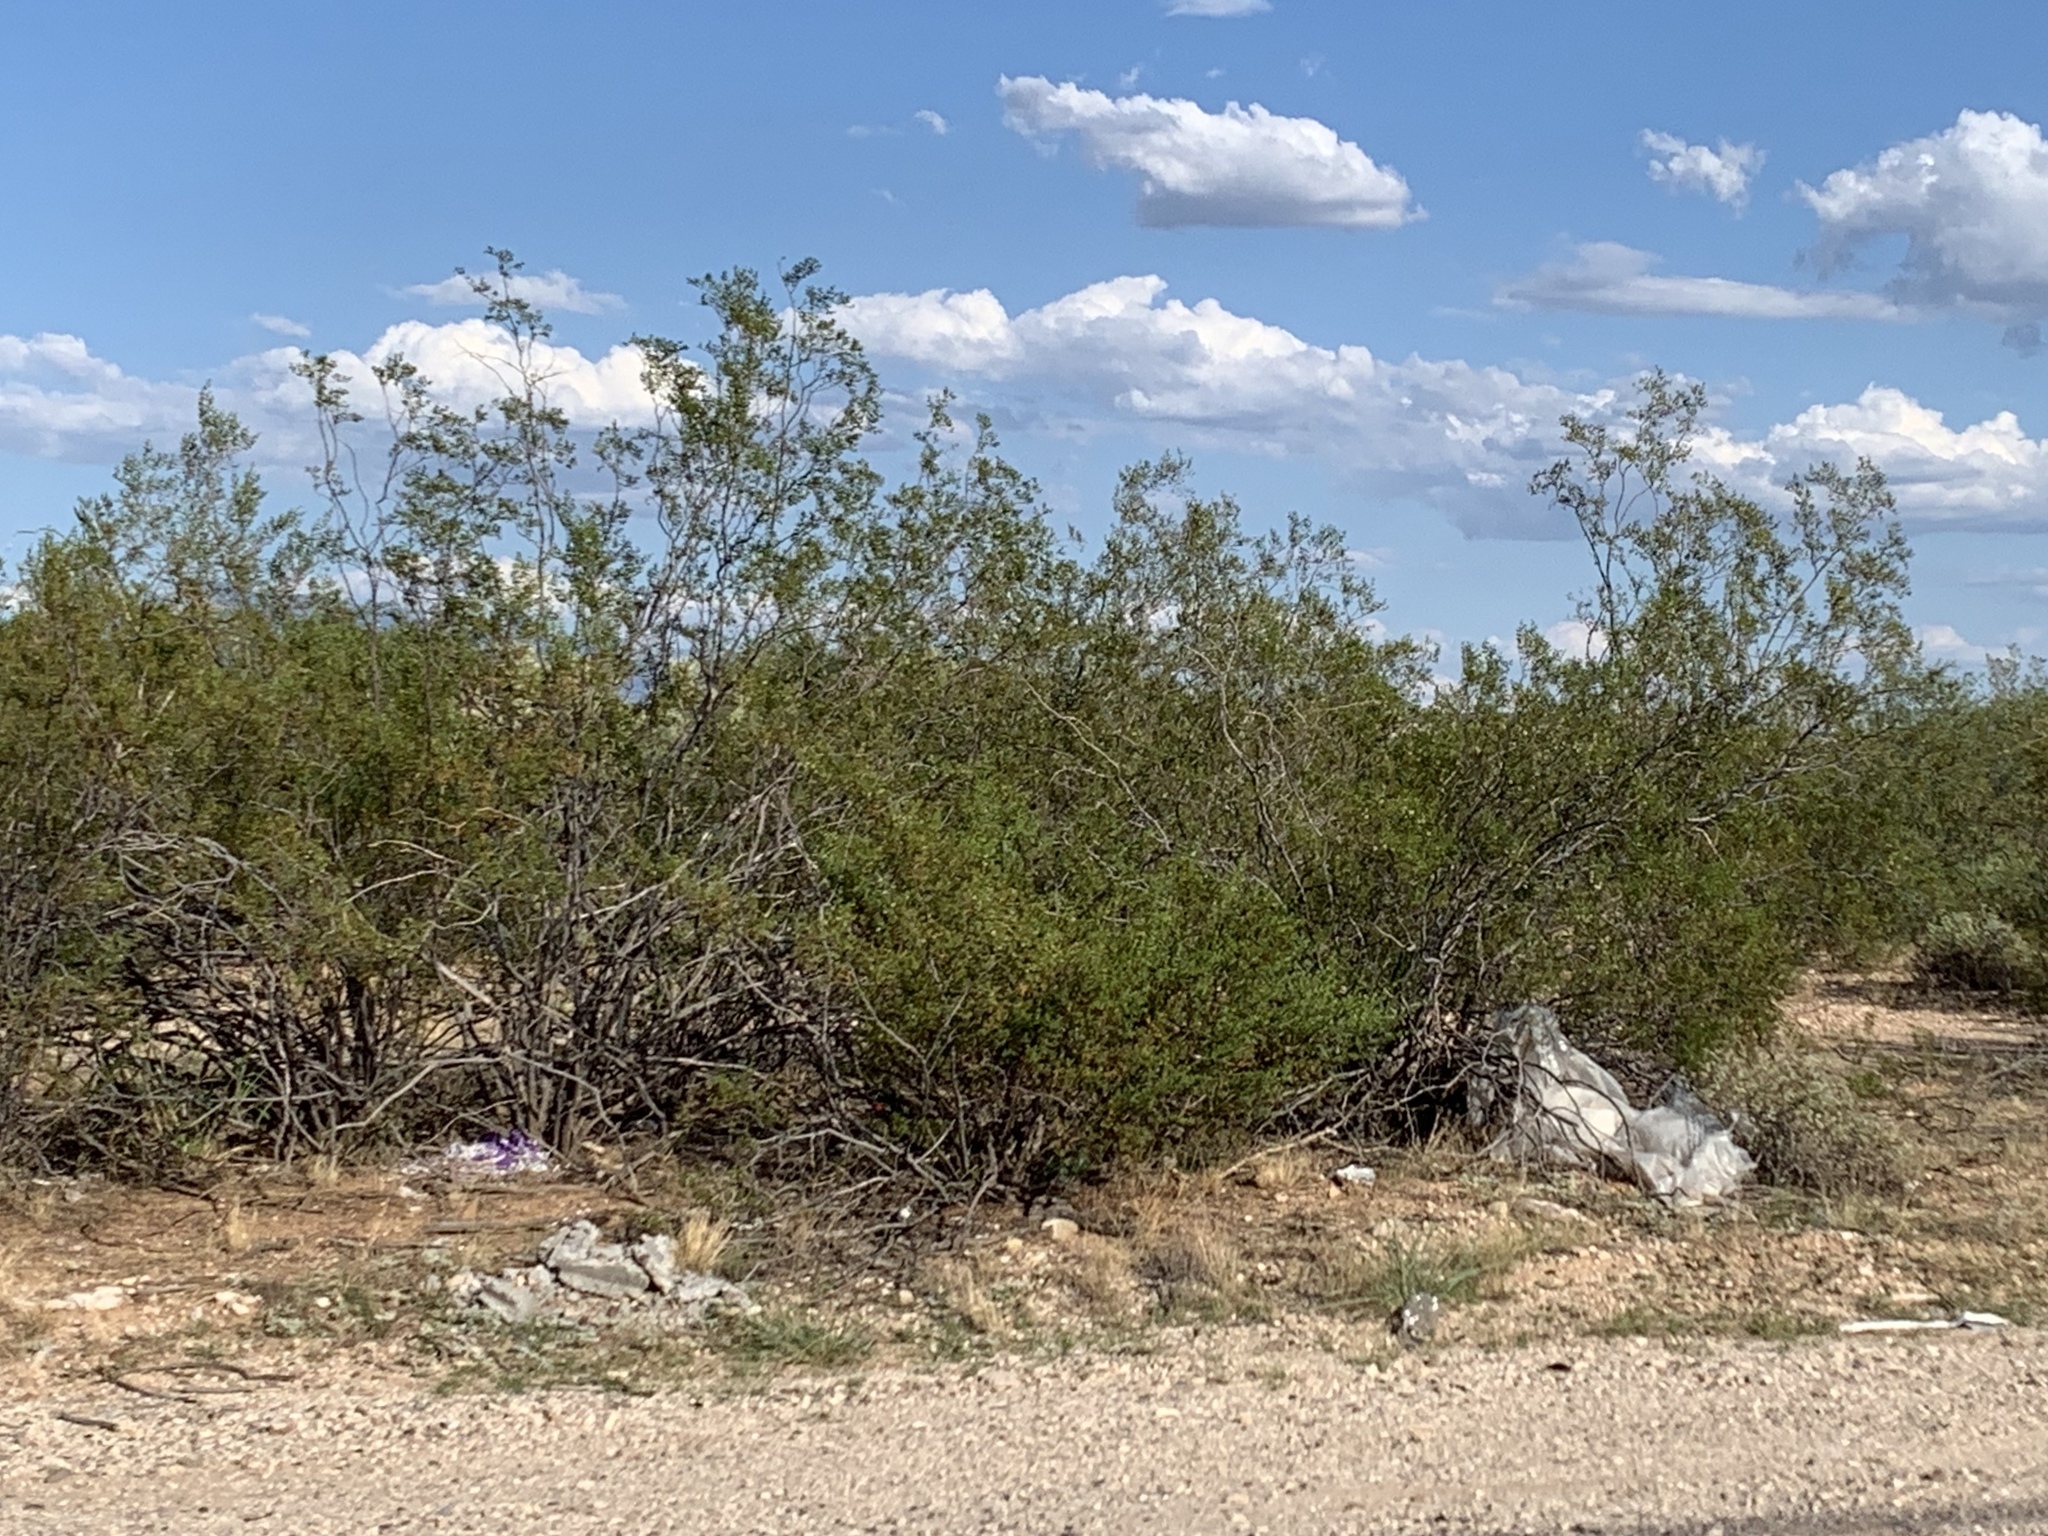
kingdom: Plantae
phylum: Tracheophyta
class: Magnoliopsida
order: Zygophyllales
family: Zygophyllaceae
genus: Larrea
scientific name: Larrea tridentata
